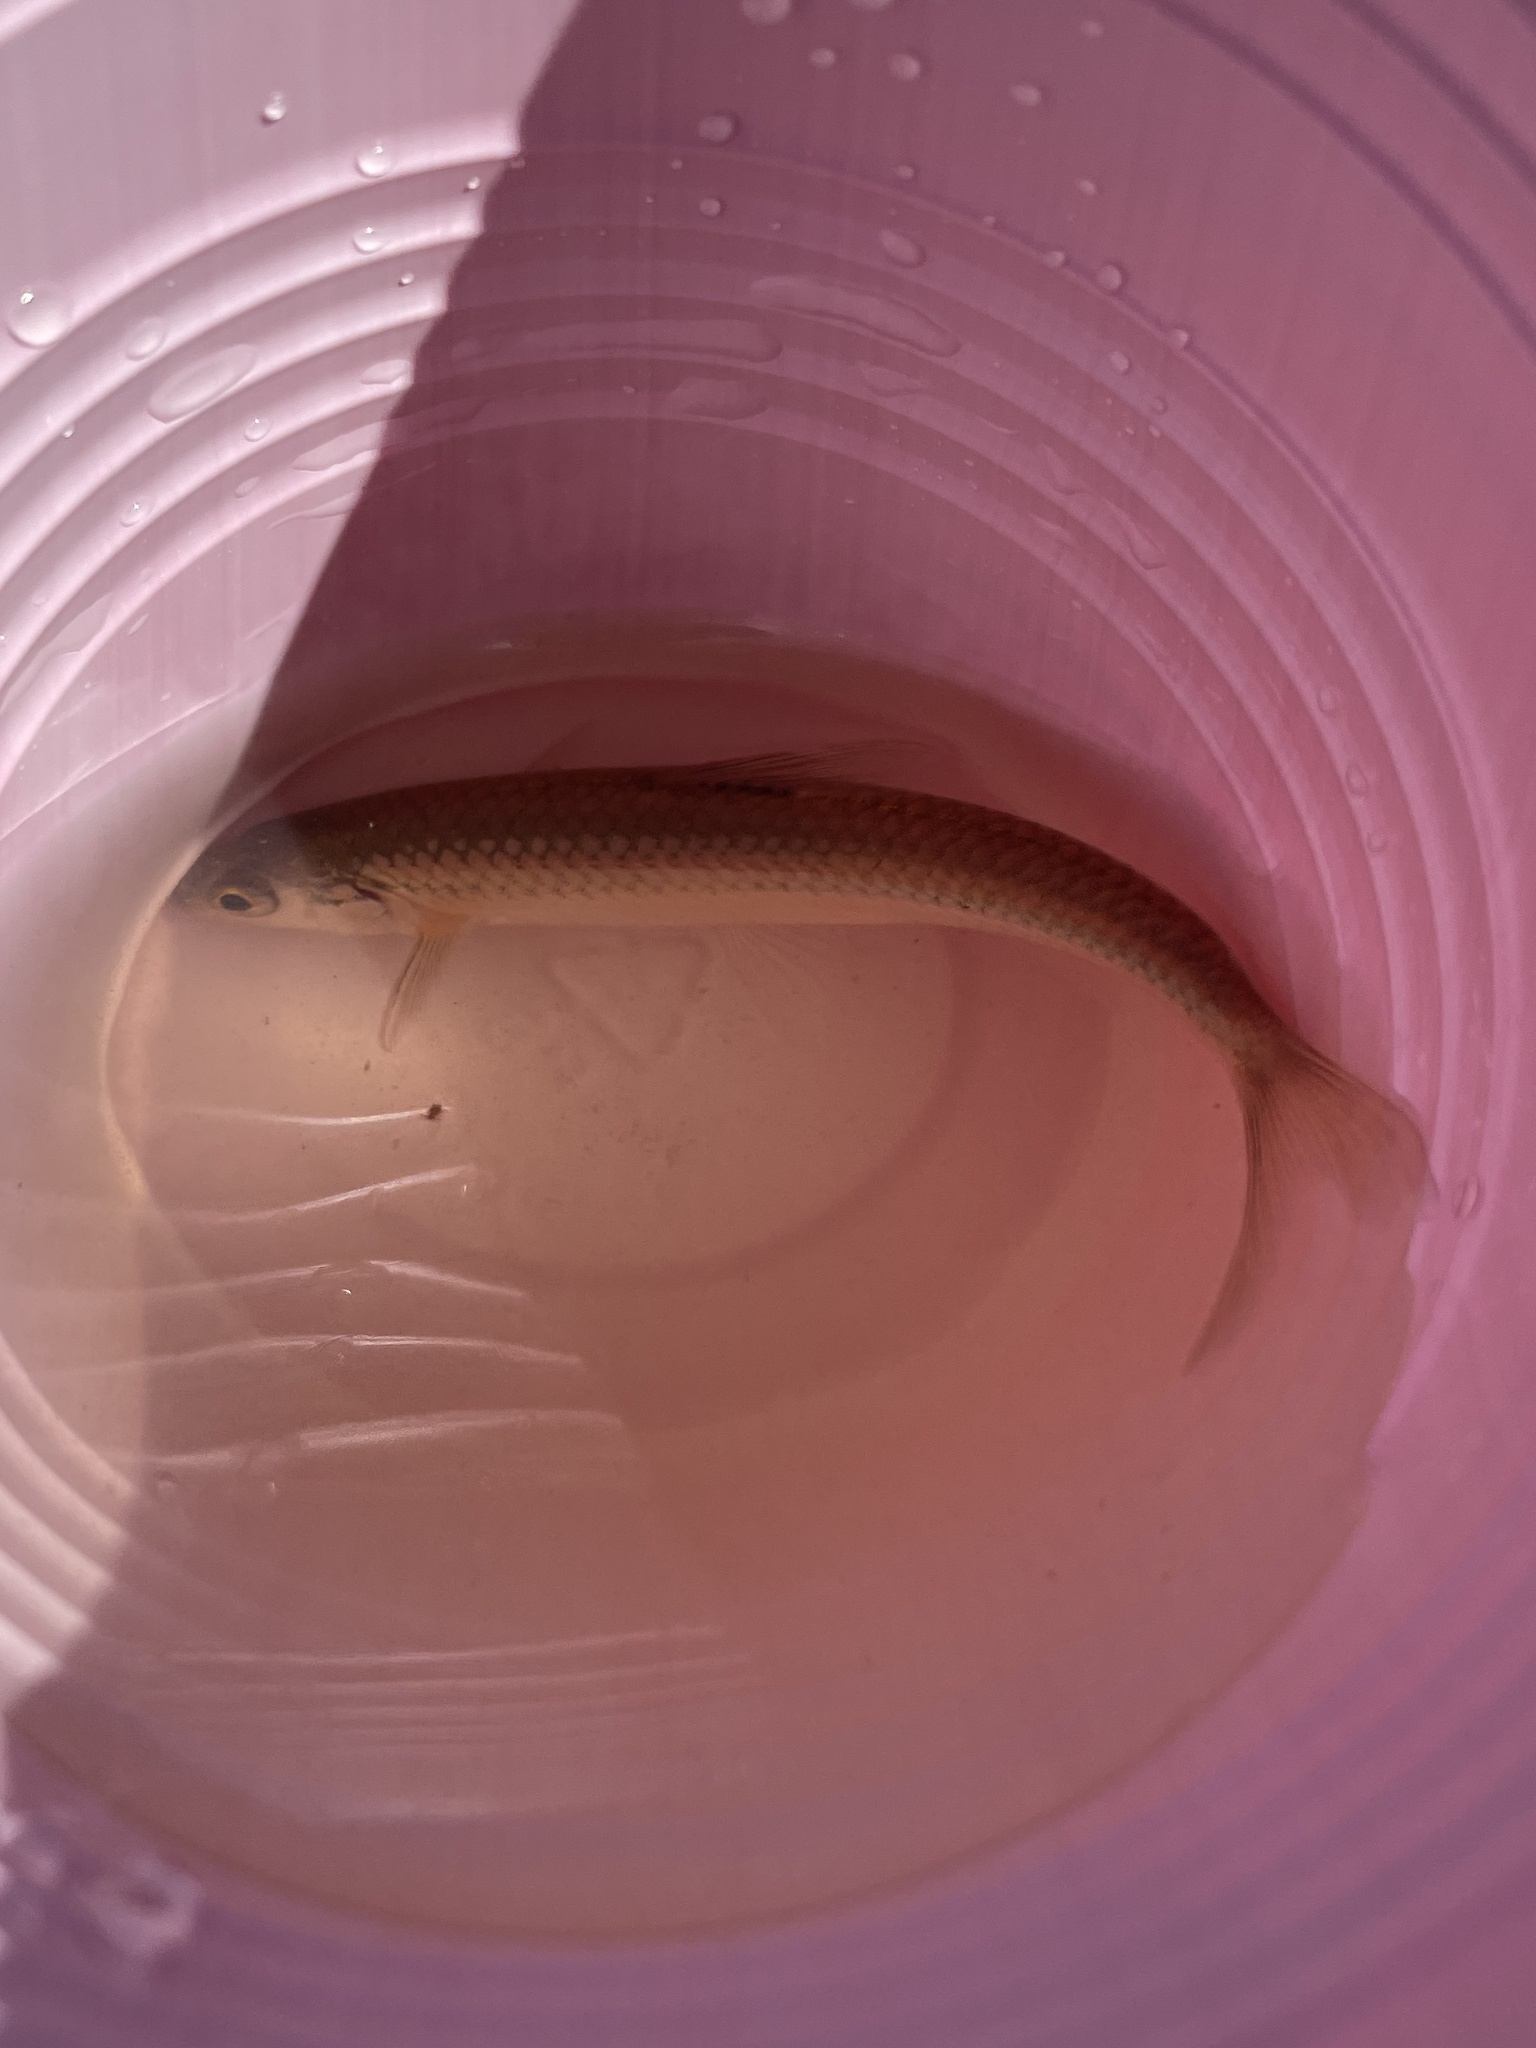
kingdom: Animalia
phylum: Chordata
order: Cypriniformes
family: Cyprinidae
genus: Notropis
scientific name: Notropis
